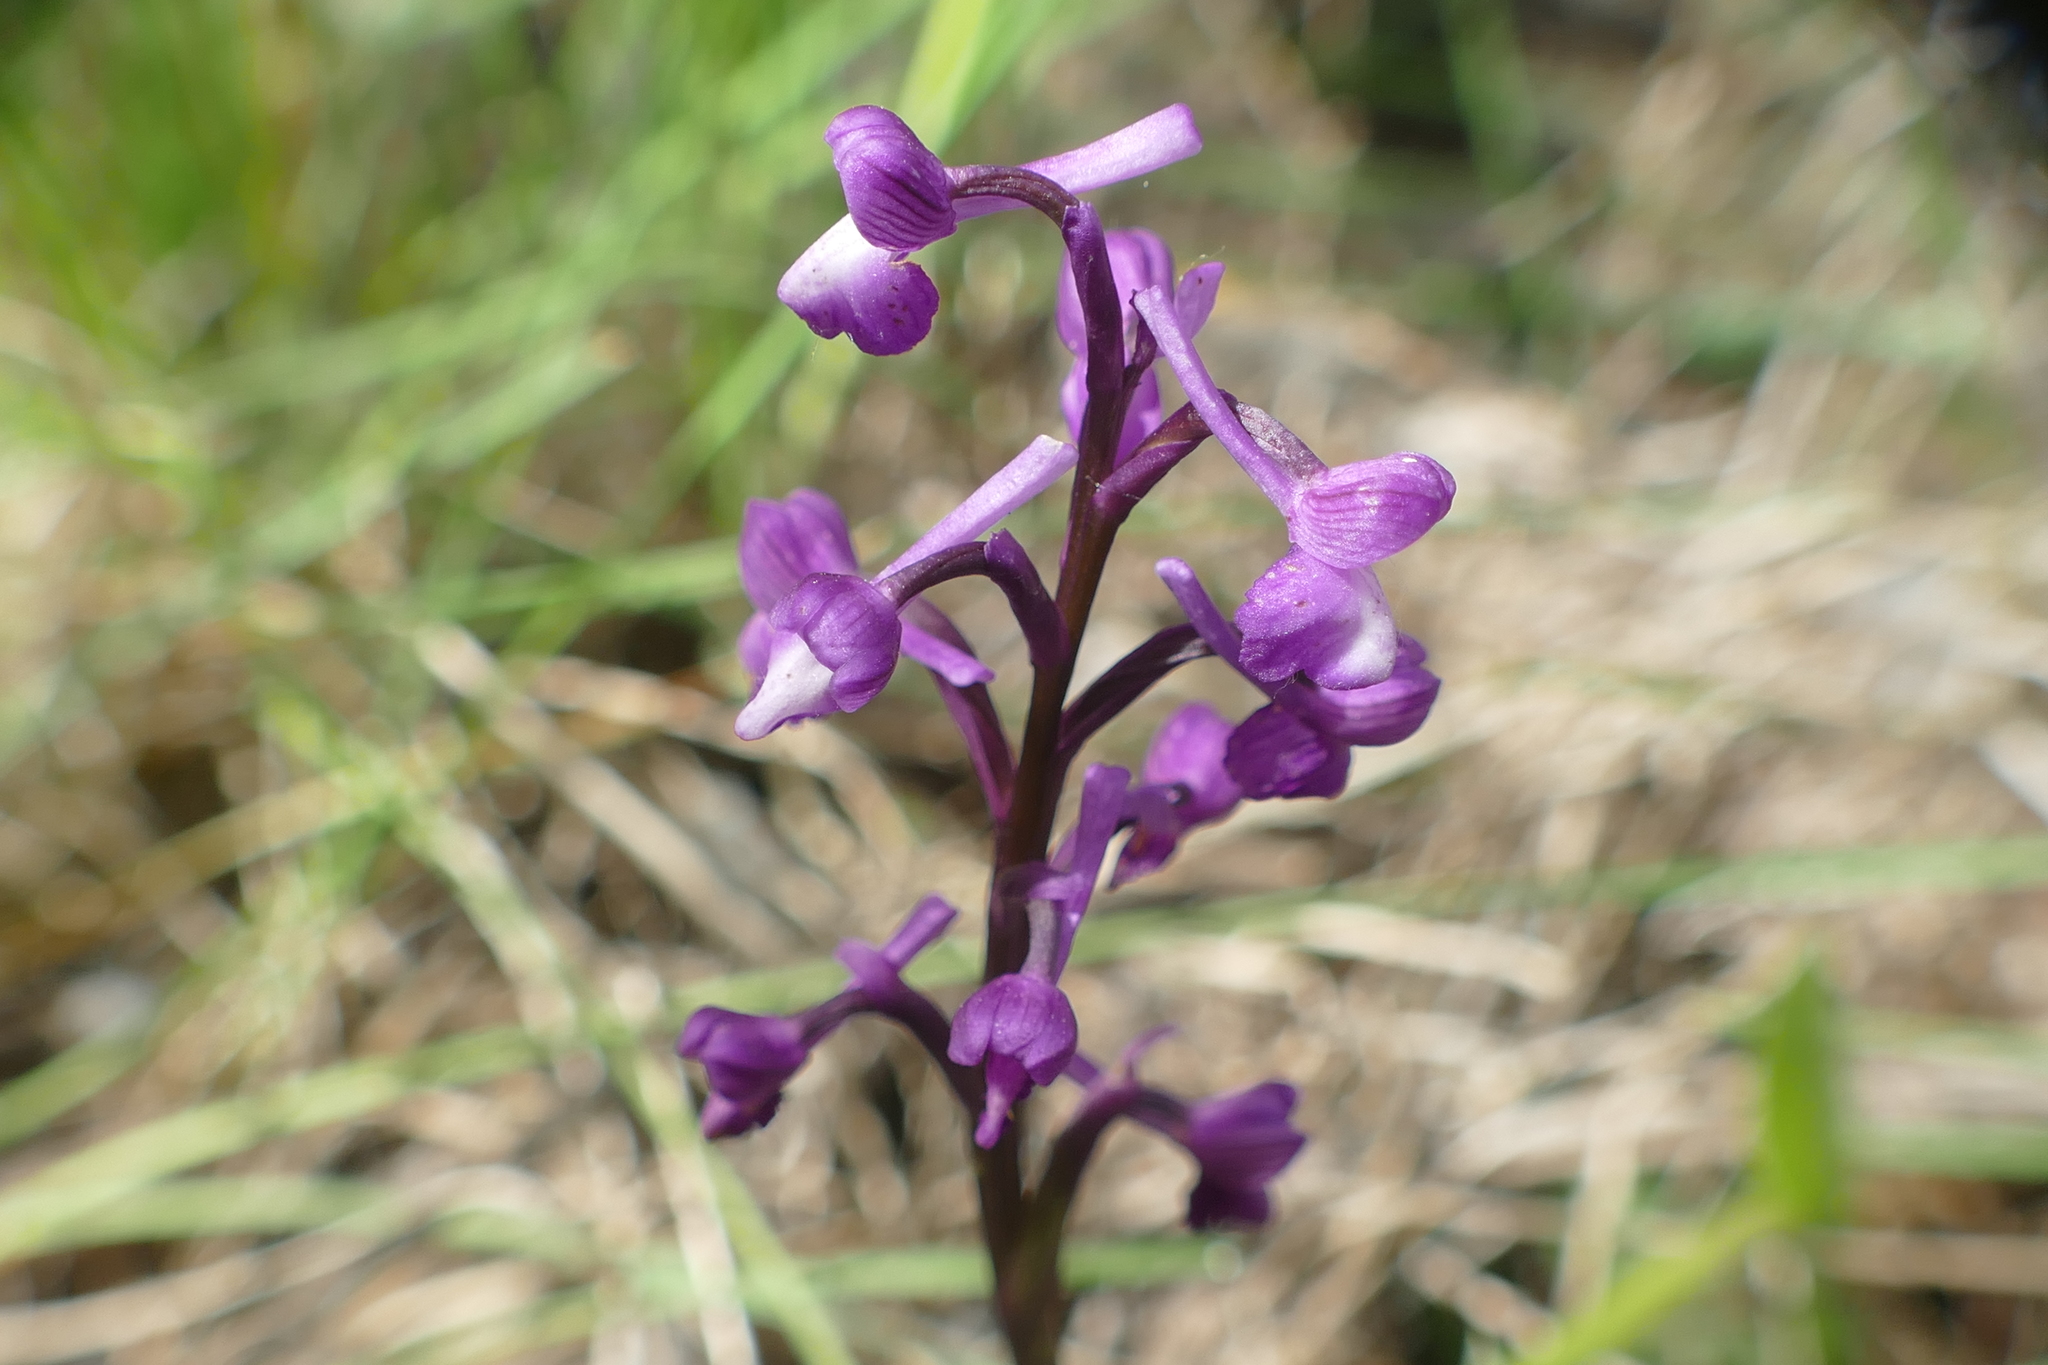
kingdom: Plantae
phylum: Tracheophyta
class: Liliopsida
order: Asparagales
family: Orchidaceae
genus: Anacamptis
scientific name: Anacamptis morio
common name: Green-winged orchid
